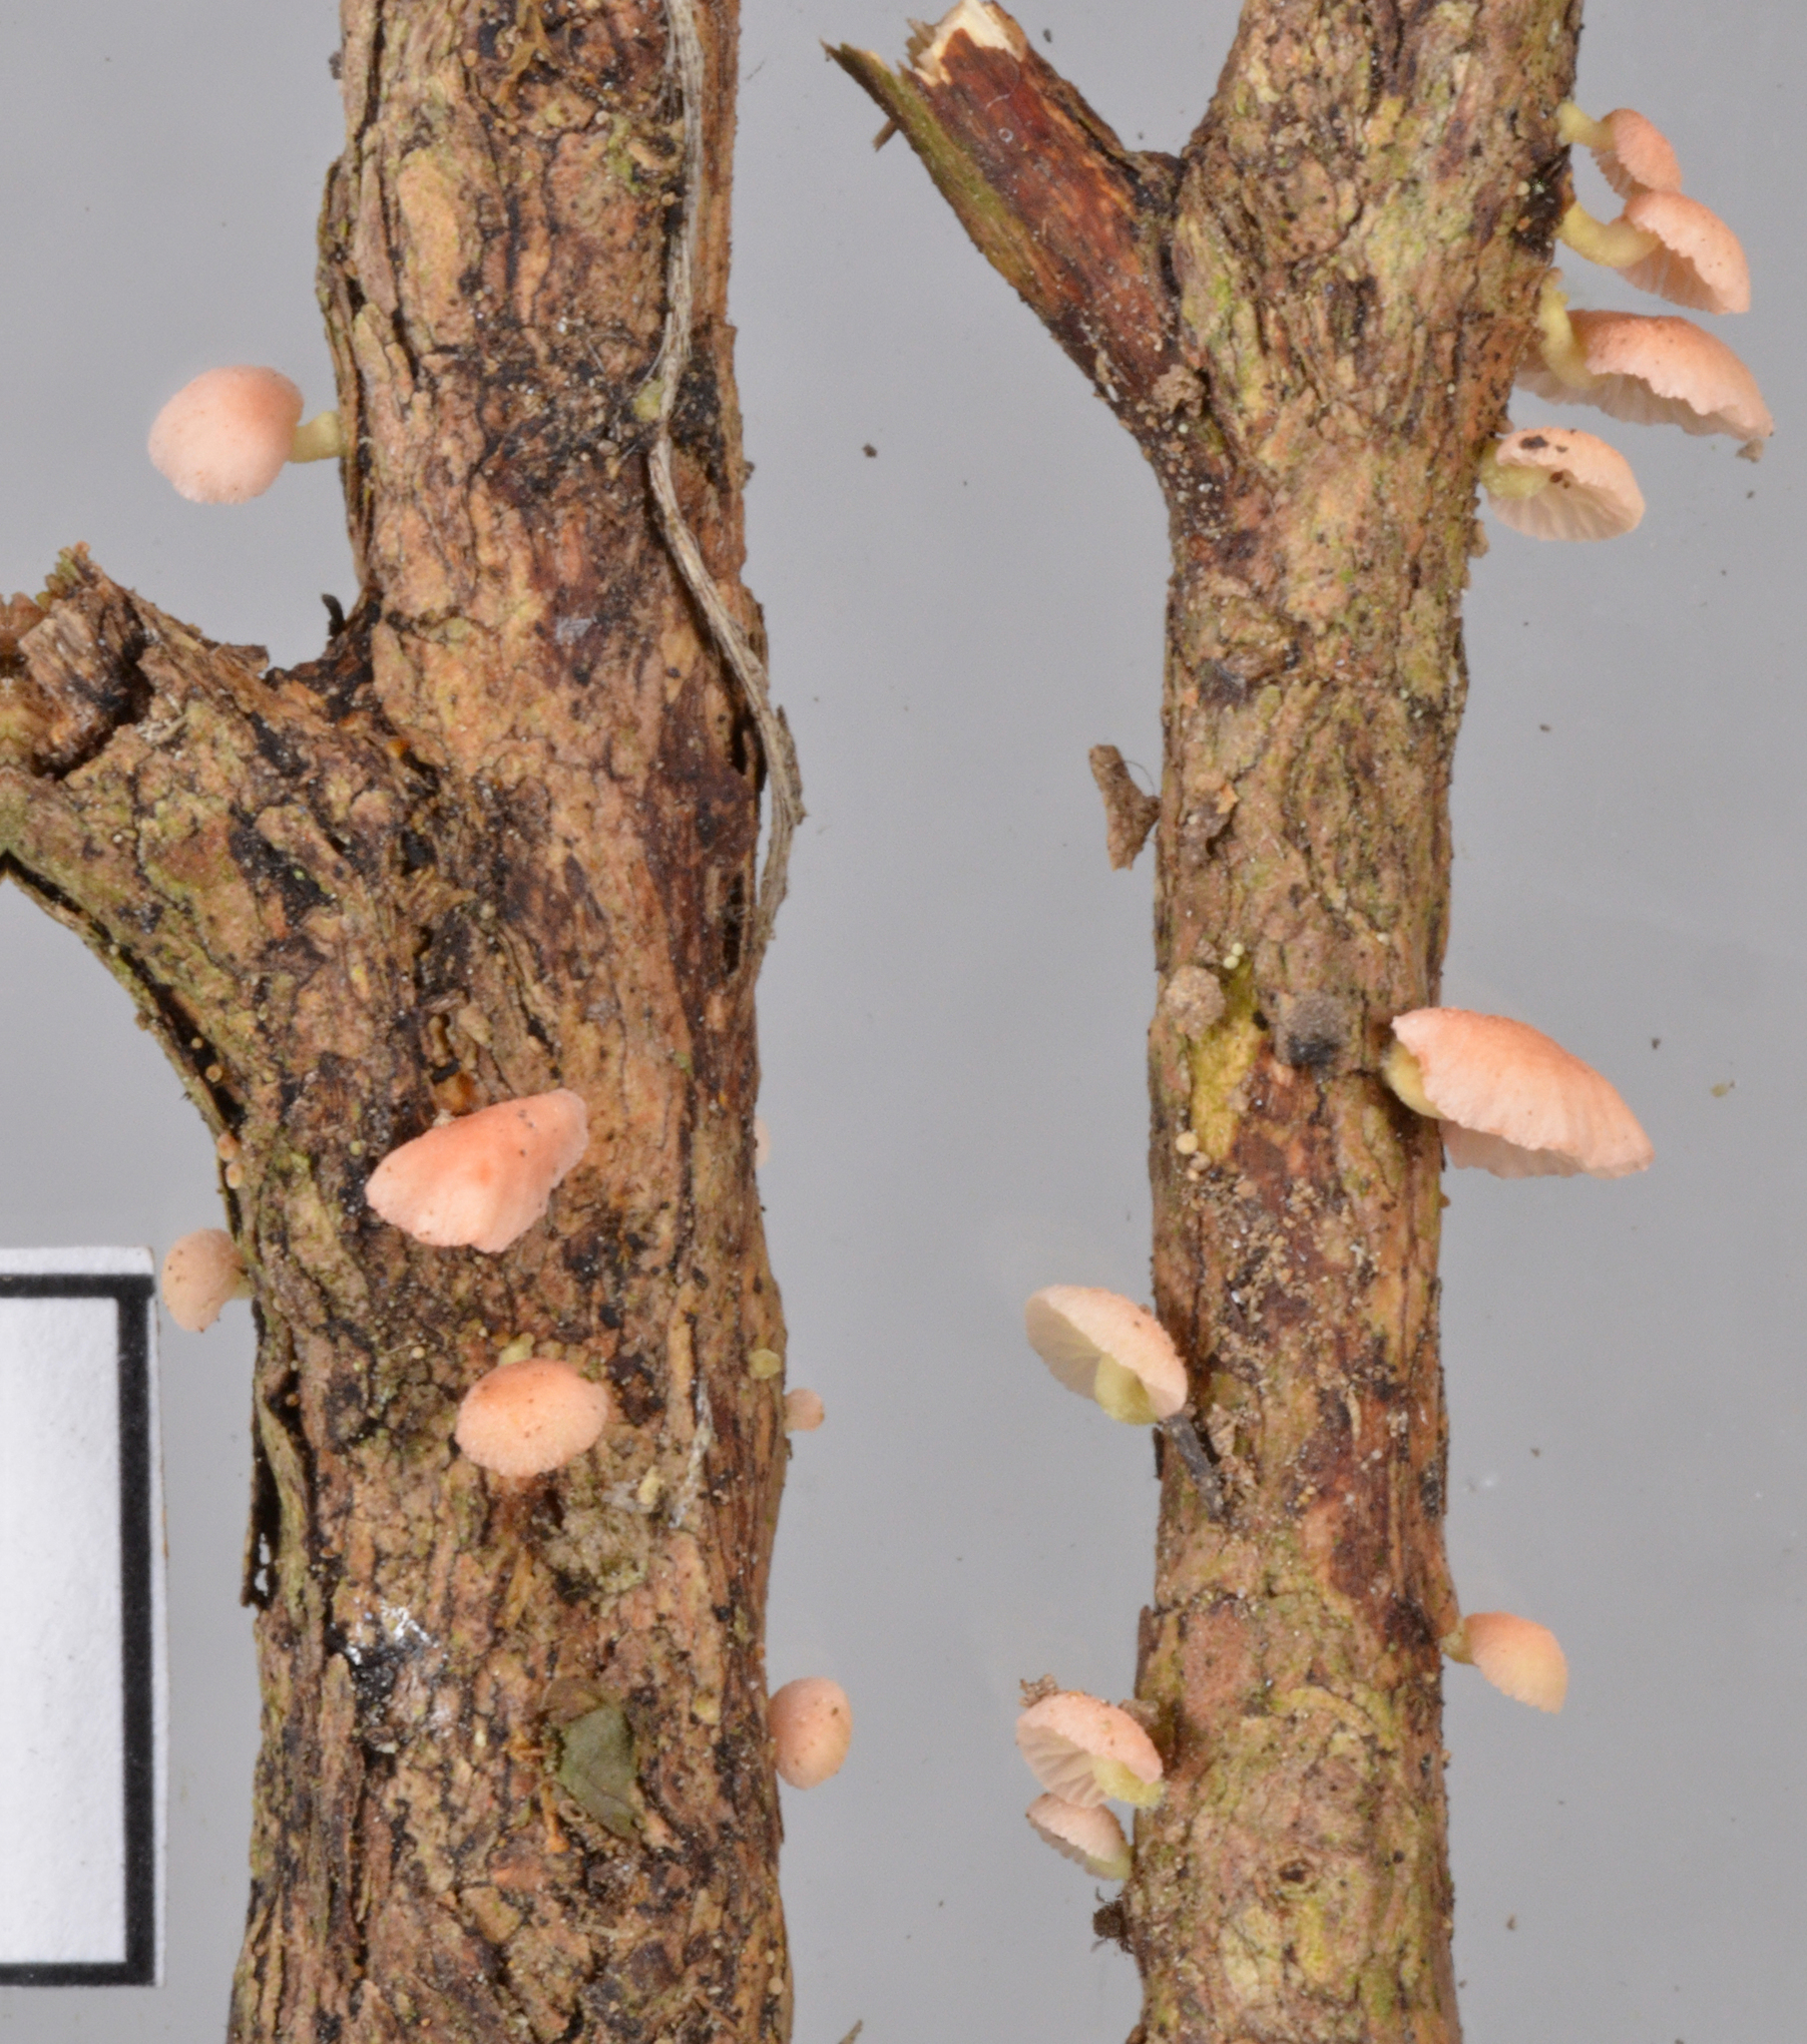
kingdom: Fungi
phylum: Basidiomycota
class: Agaricomycetes
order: Agaricales
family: Mycenaceae
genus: Mycena
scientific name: Mycena roseoflava
